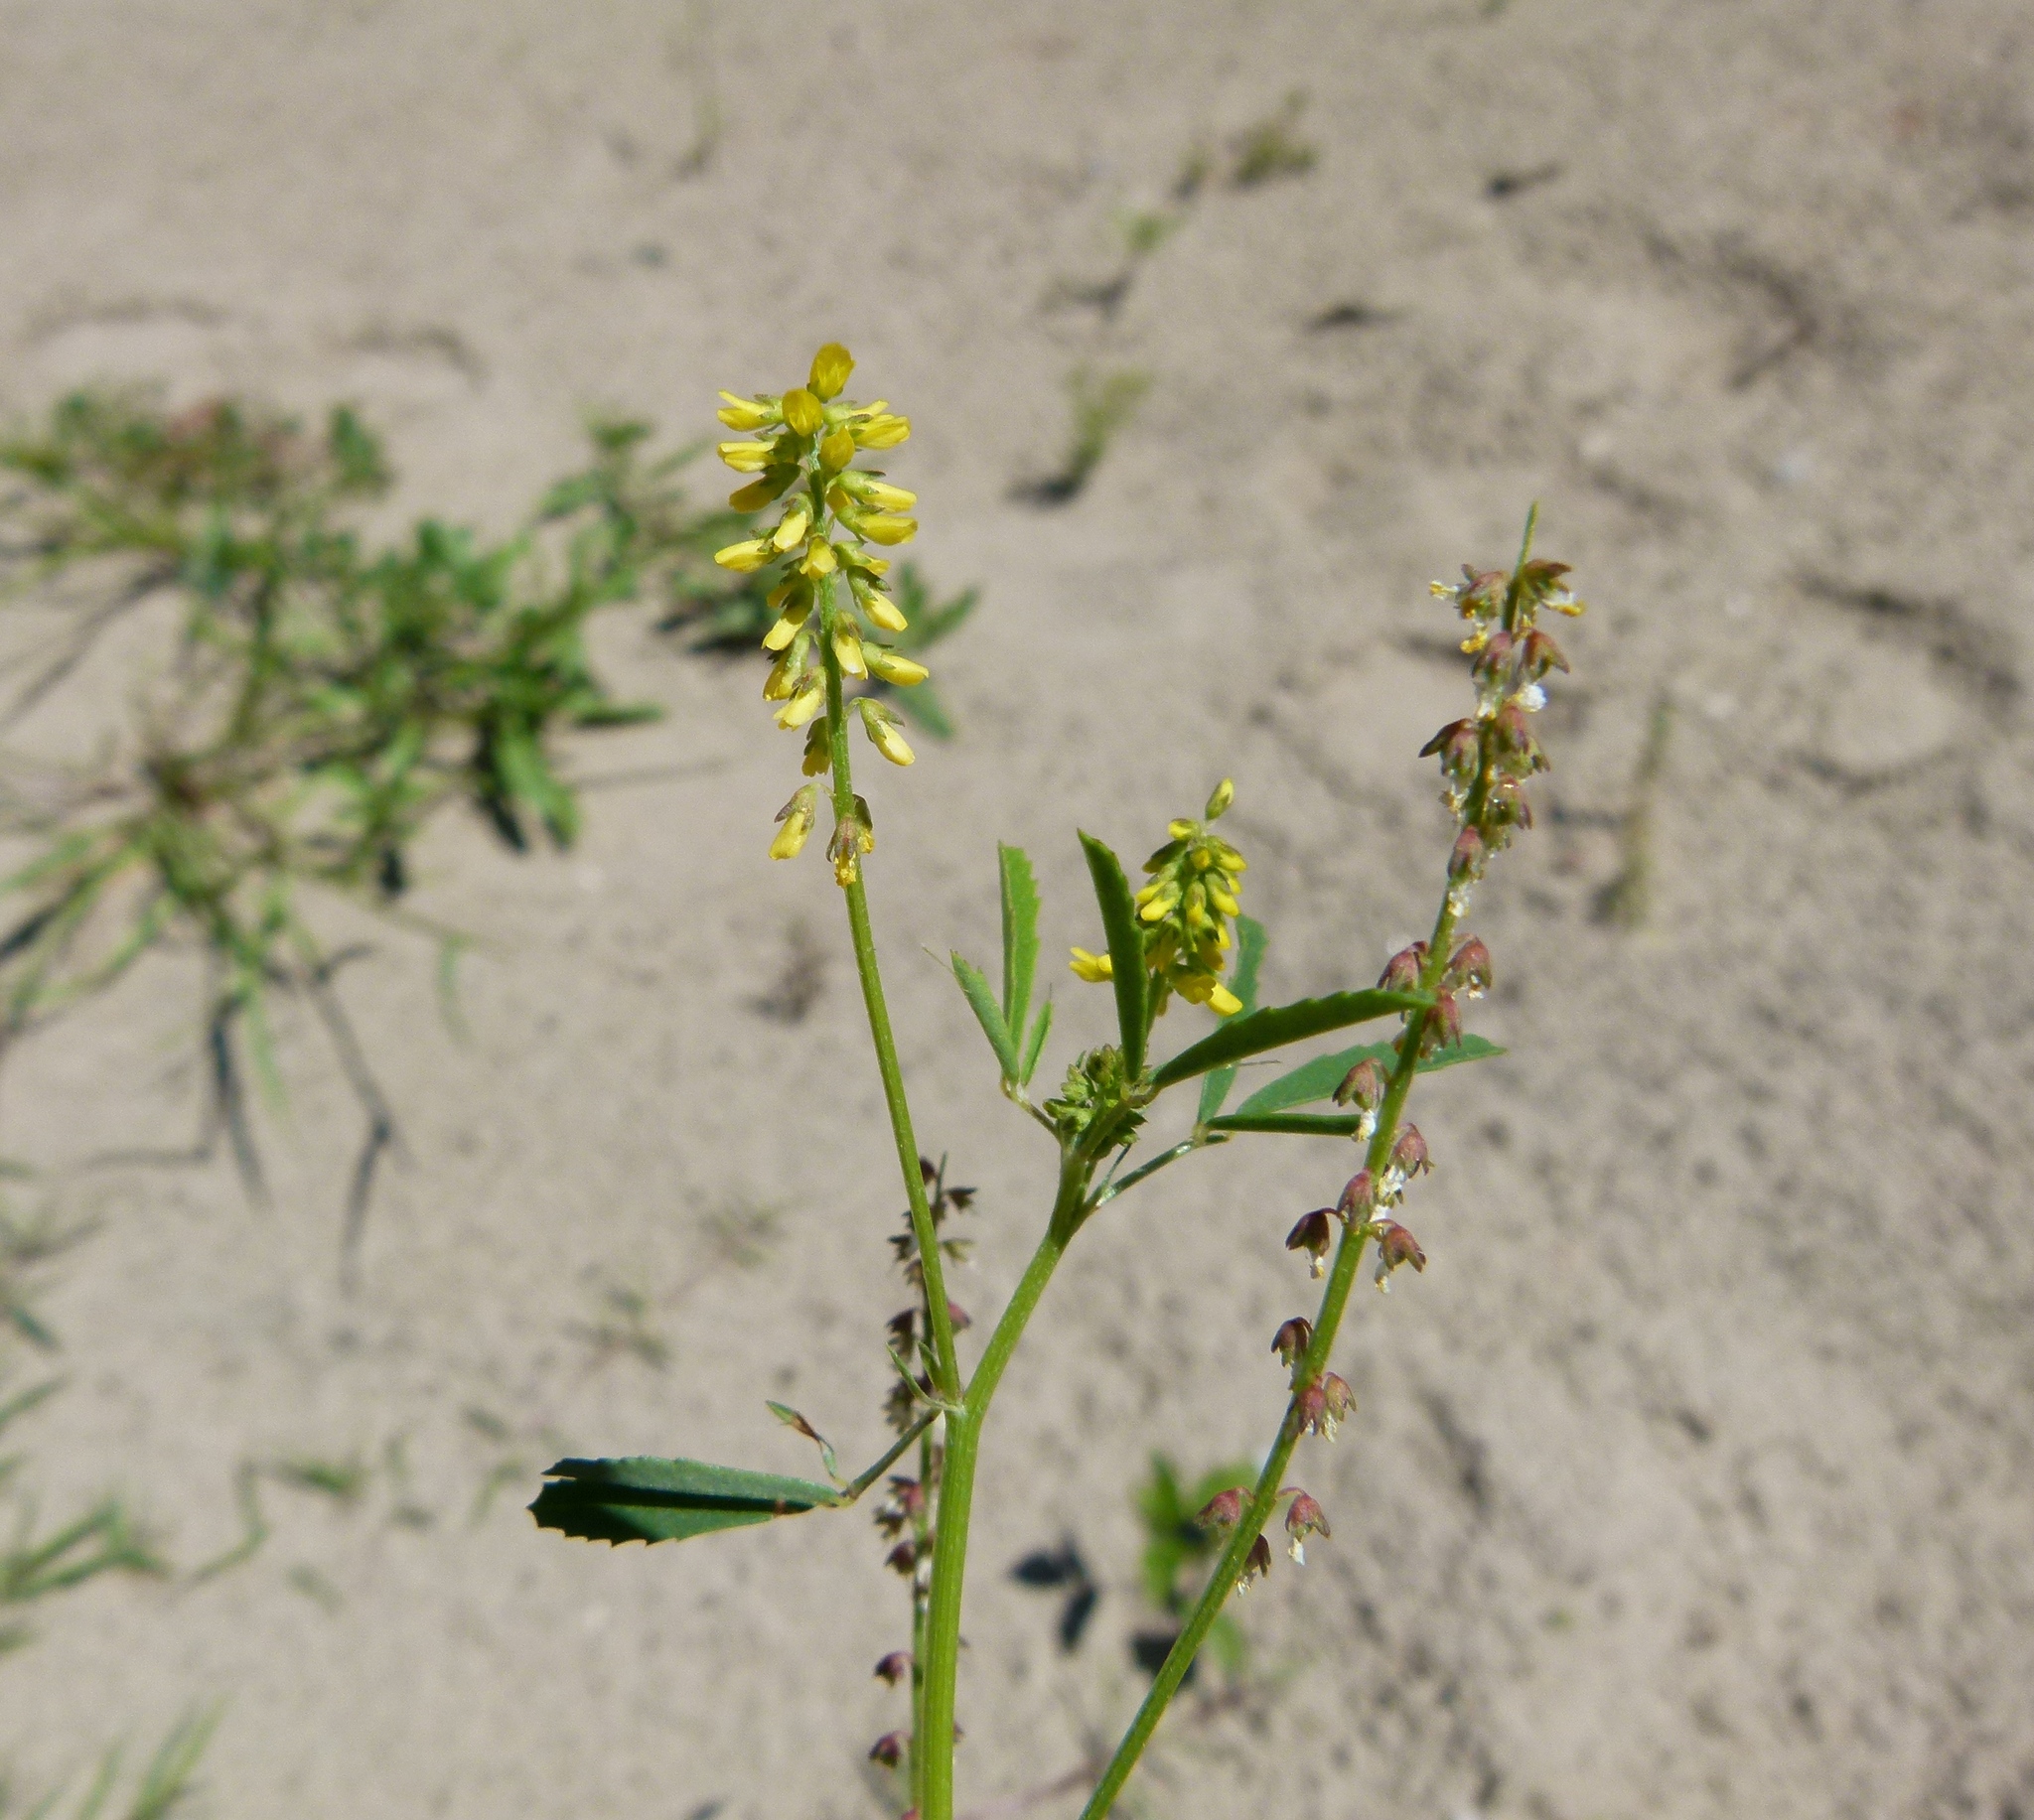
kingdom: Plantae
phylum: Tracheophyta
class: Magnoliopsida
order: Fabales
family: Fabaceae
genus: Melilotus
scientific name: Melilotus indicus
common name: Small melilot
